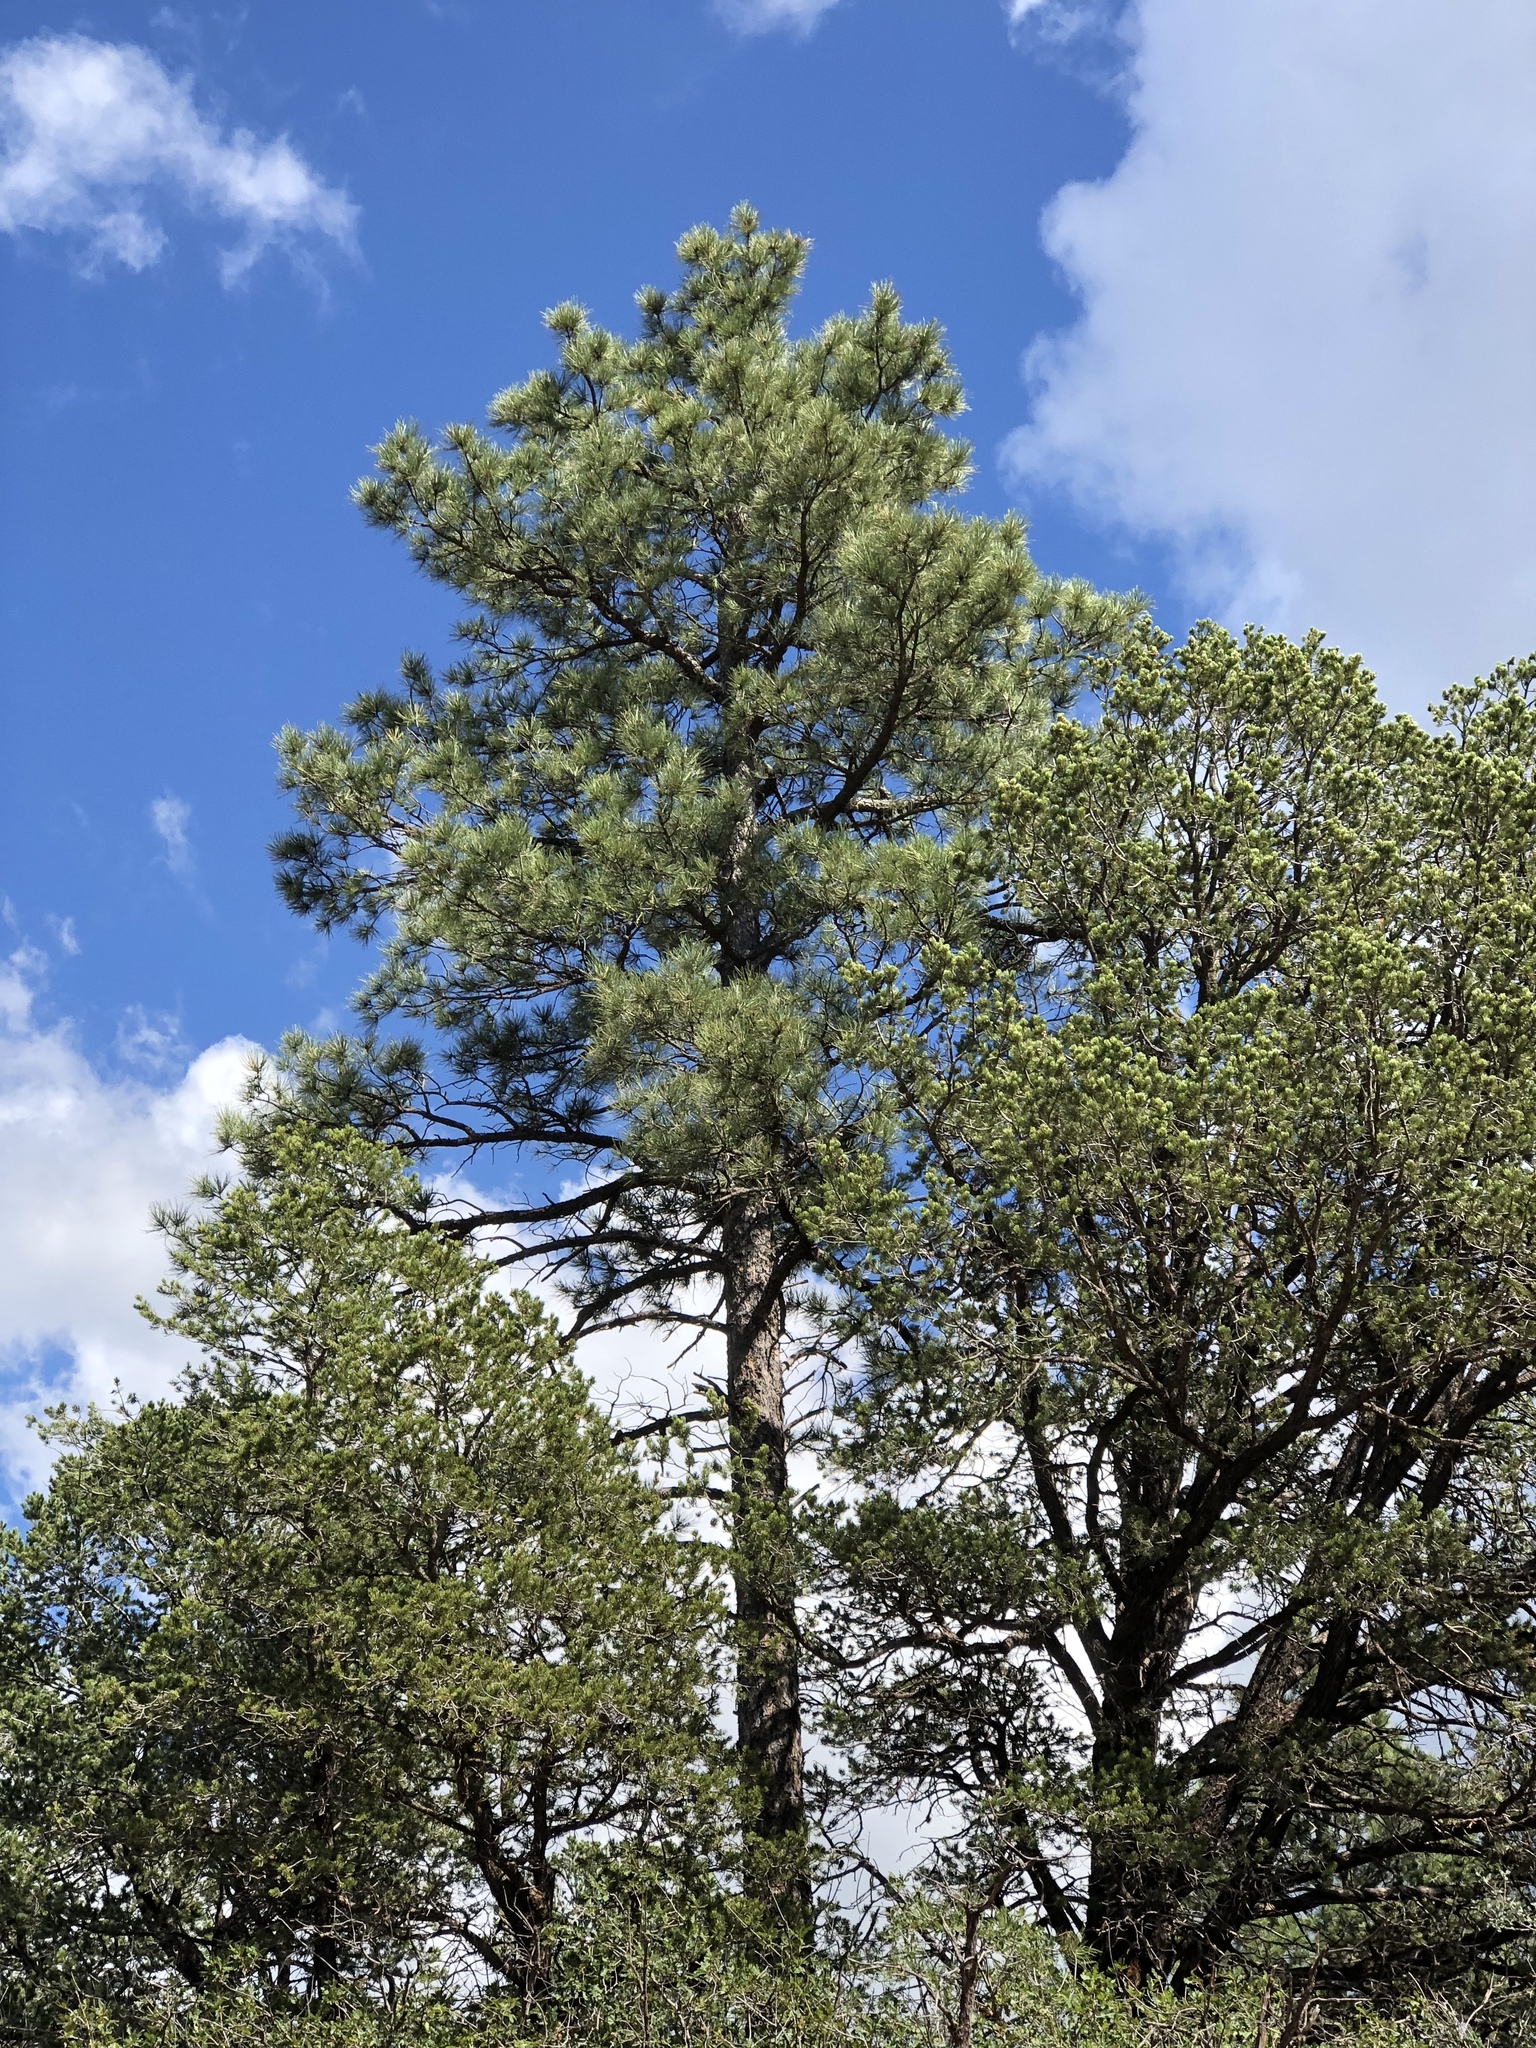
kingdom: Plantae
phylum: Tracheophyta
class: Pinopsida
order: Pinales
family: Pinaceae
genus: Pinus
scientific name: Pinus ponderosa
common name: Western yellow-pine
